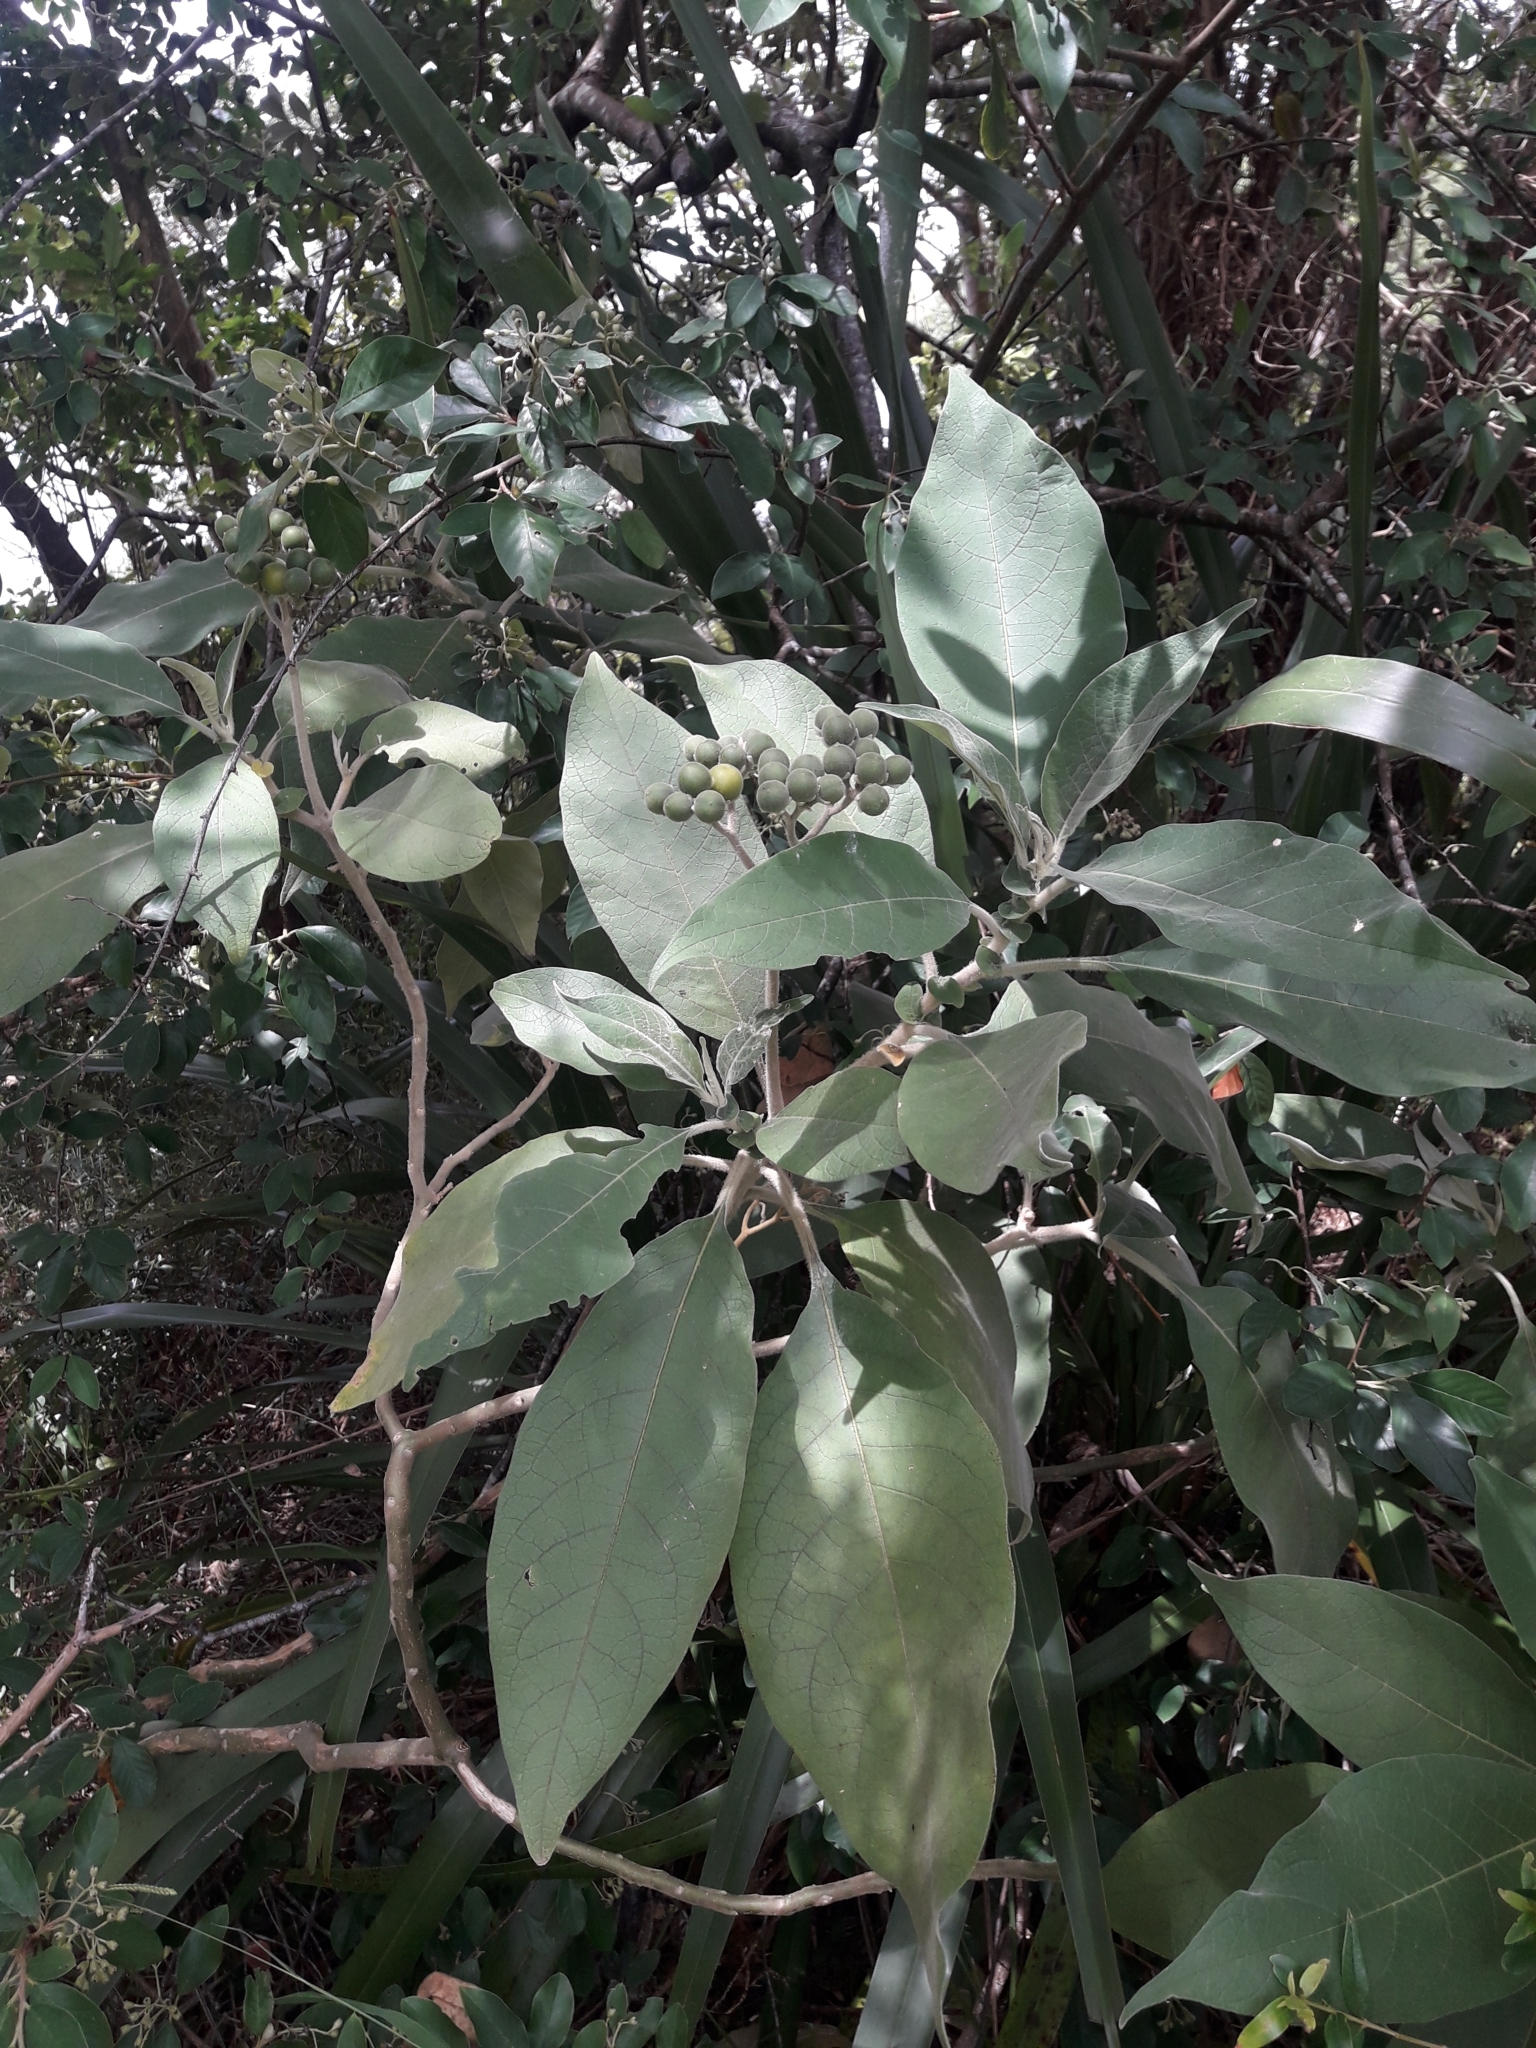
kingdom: Plantae
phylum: Tracheophyta
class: Magnoliopsida
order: Solanales
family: Solanaceae
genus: Solanum
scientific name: Solanum mauritianum
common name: Earleaf nightshade
